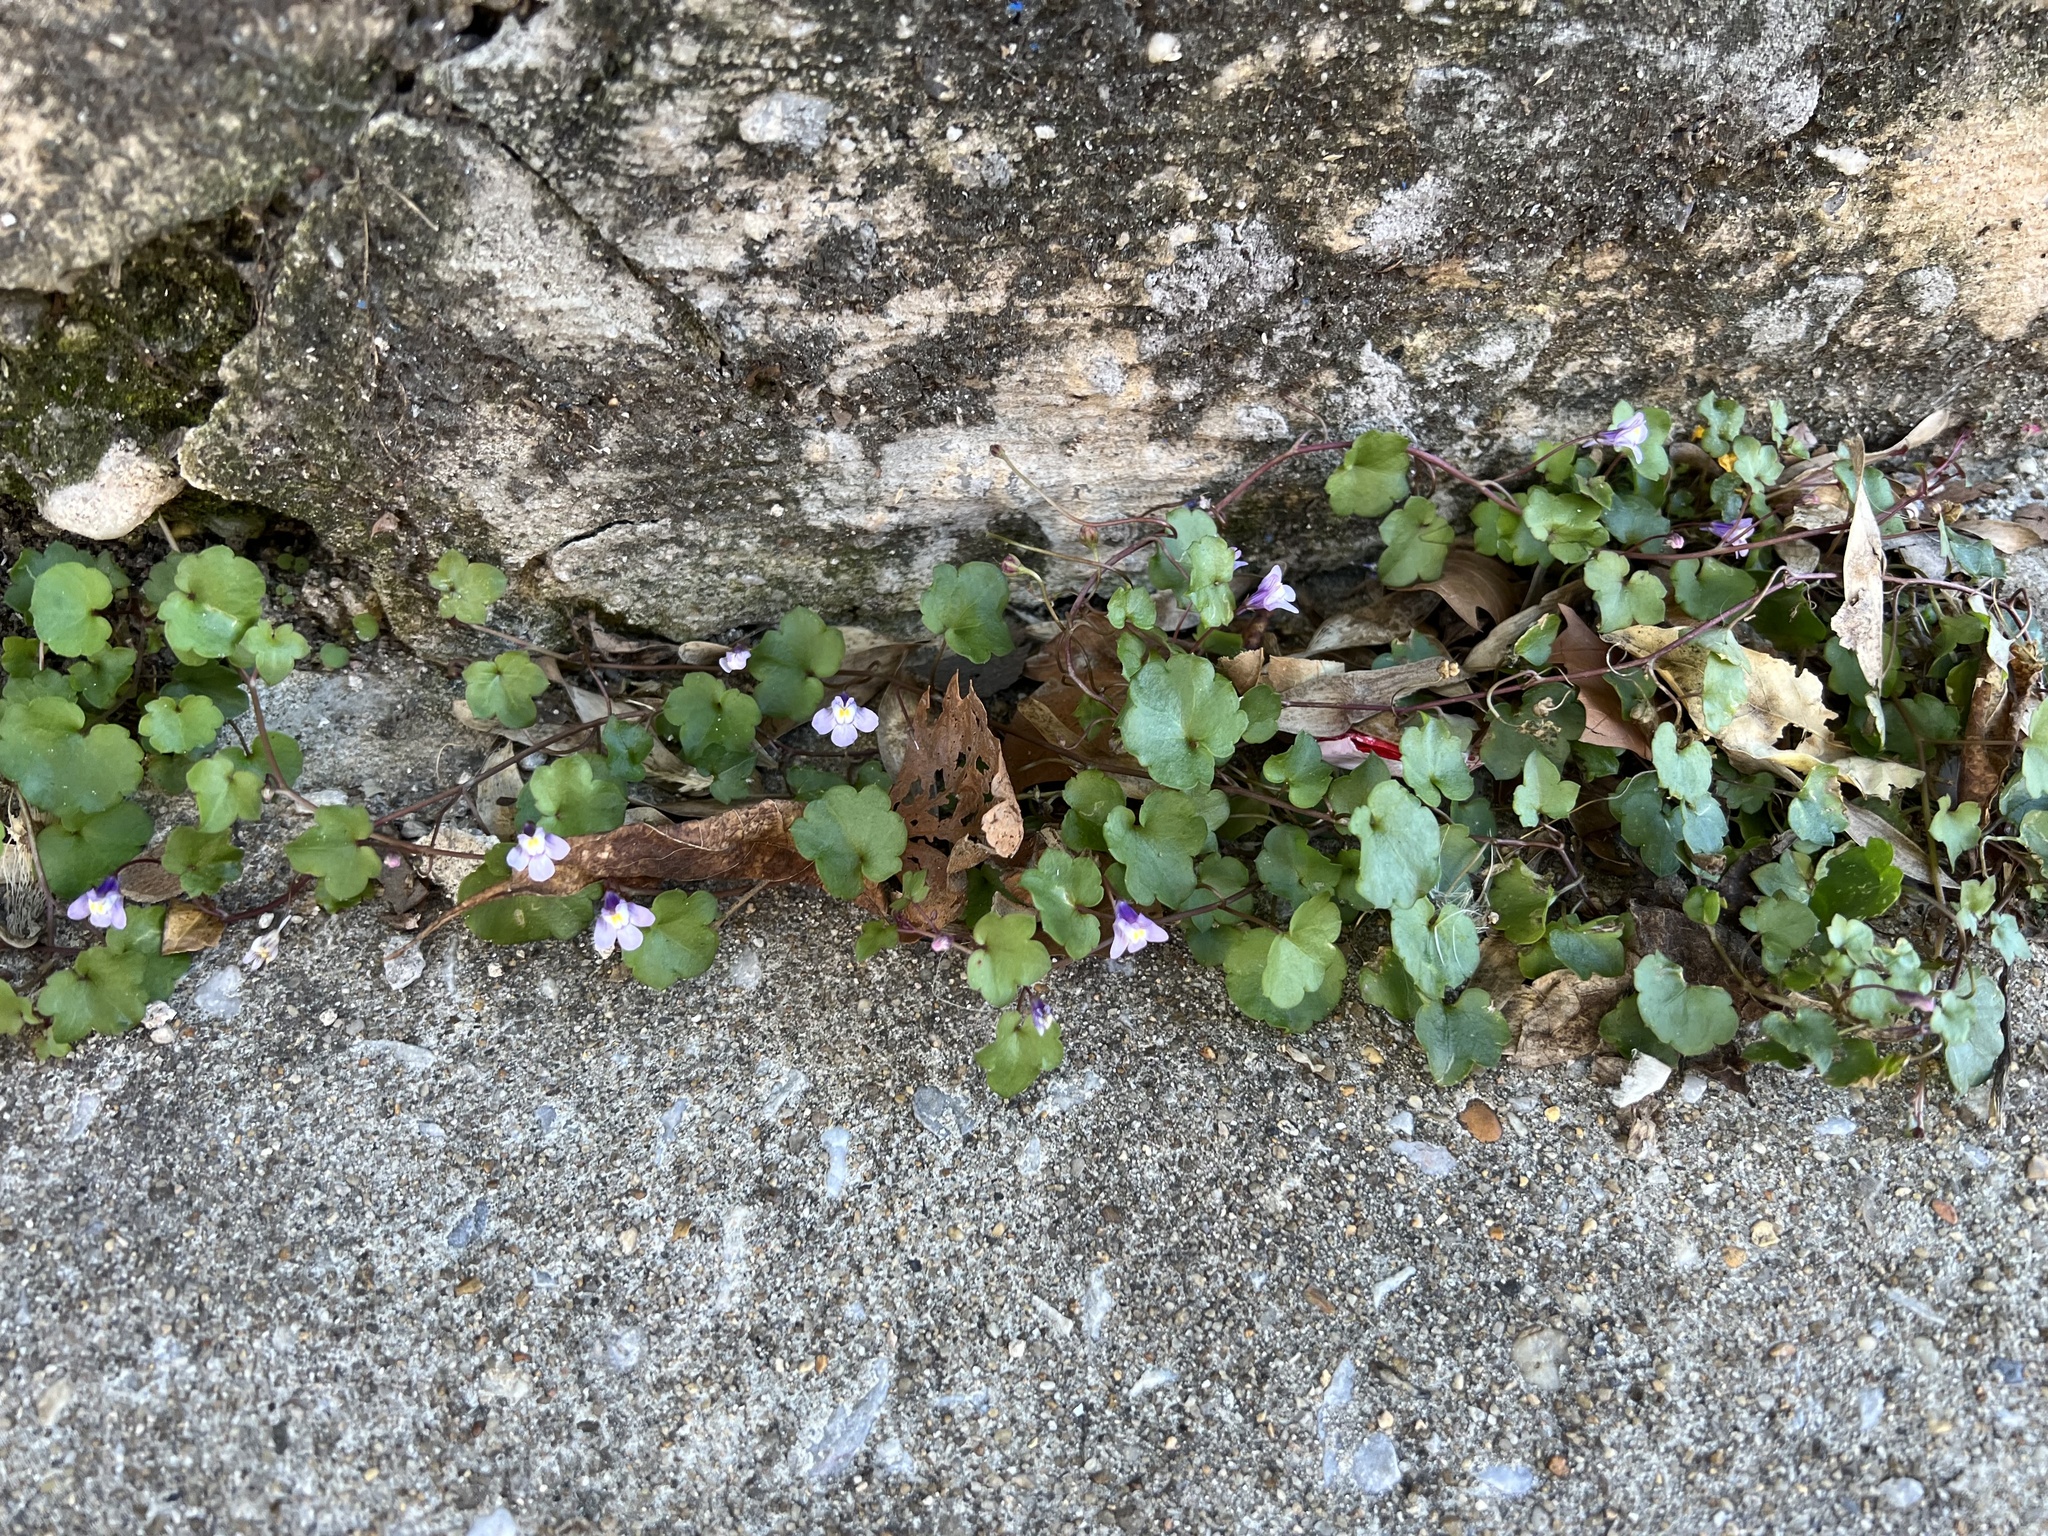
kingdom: Plantae
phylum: Tracheophyta
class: Magnoliopsida
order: Lamiales
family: Plantaginaceae
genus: Cymbalaria
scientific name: Cymbalaria muralis
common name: Ivy-leaved toadflax
